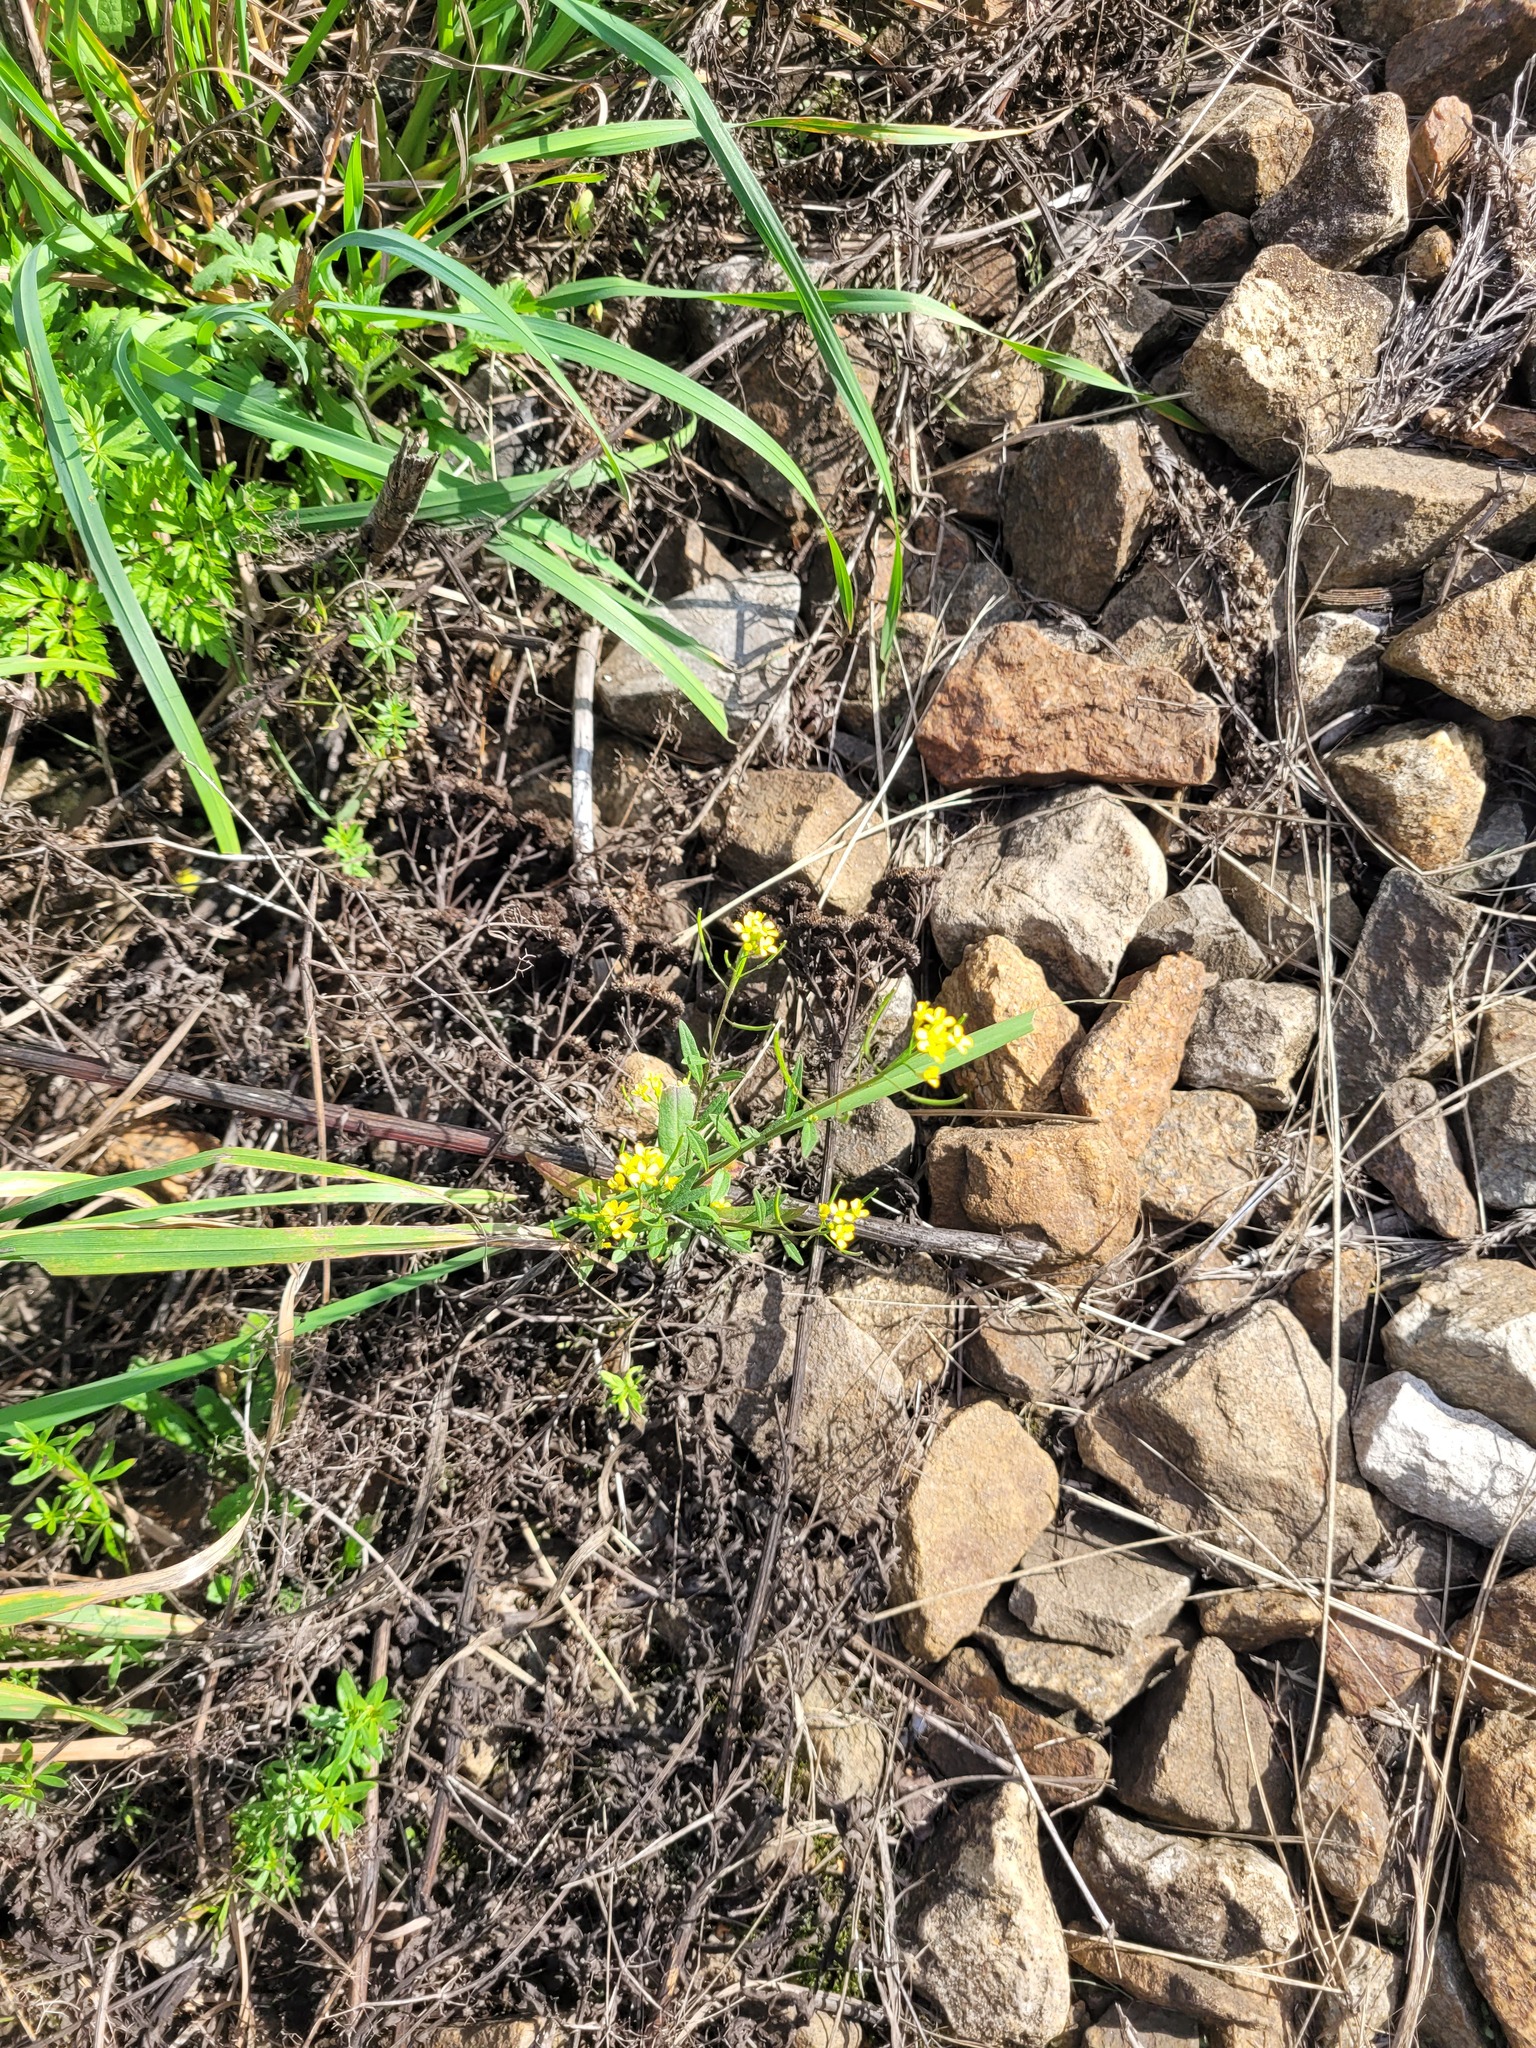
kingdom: Plantae
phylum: Tracheophyta
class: Magnoliopsida
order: Brassicales
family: Brassicaceae
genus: Erysimum
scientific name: Erysimum cheiranthoides
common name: Treacle mustard
